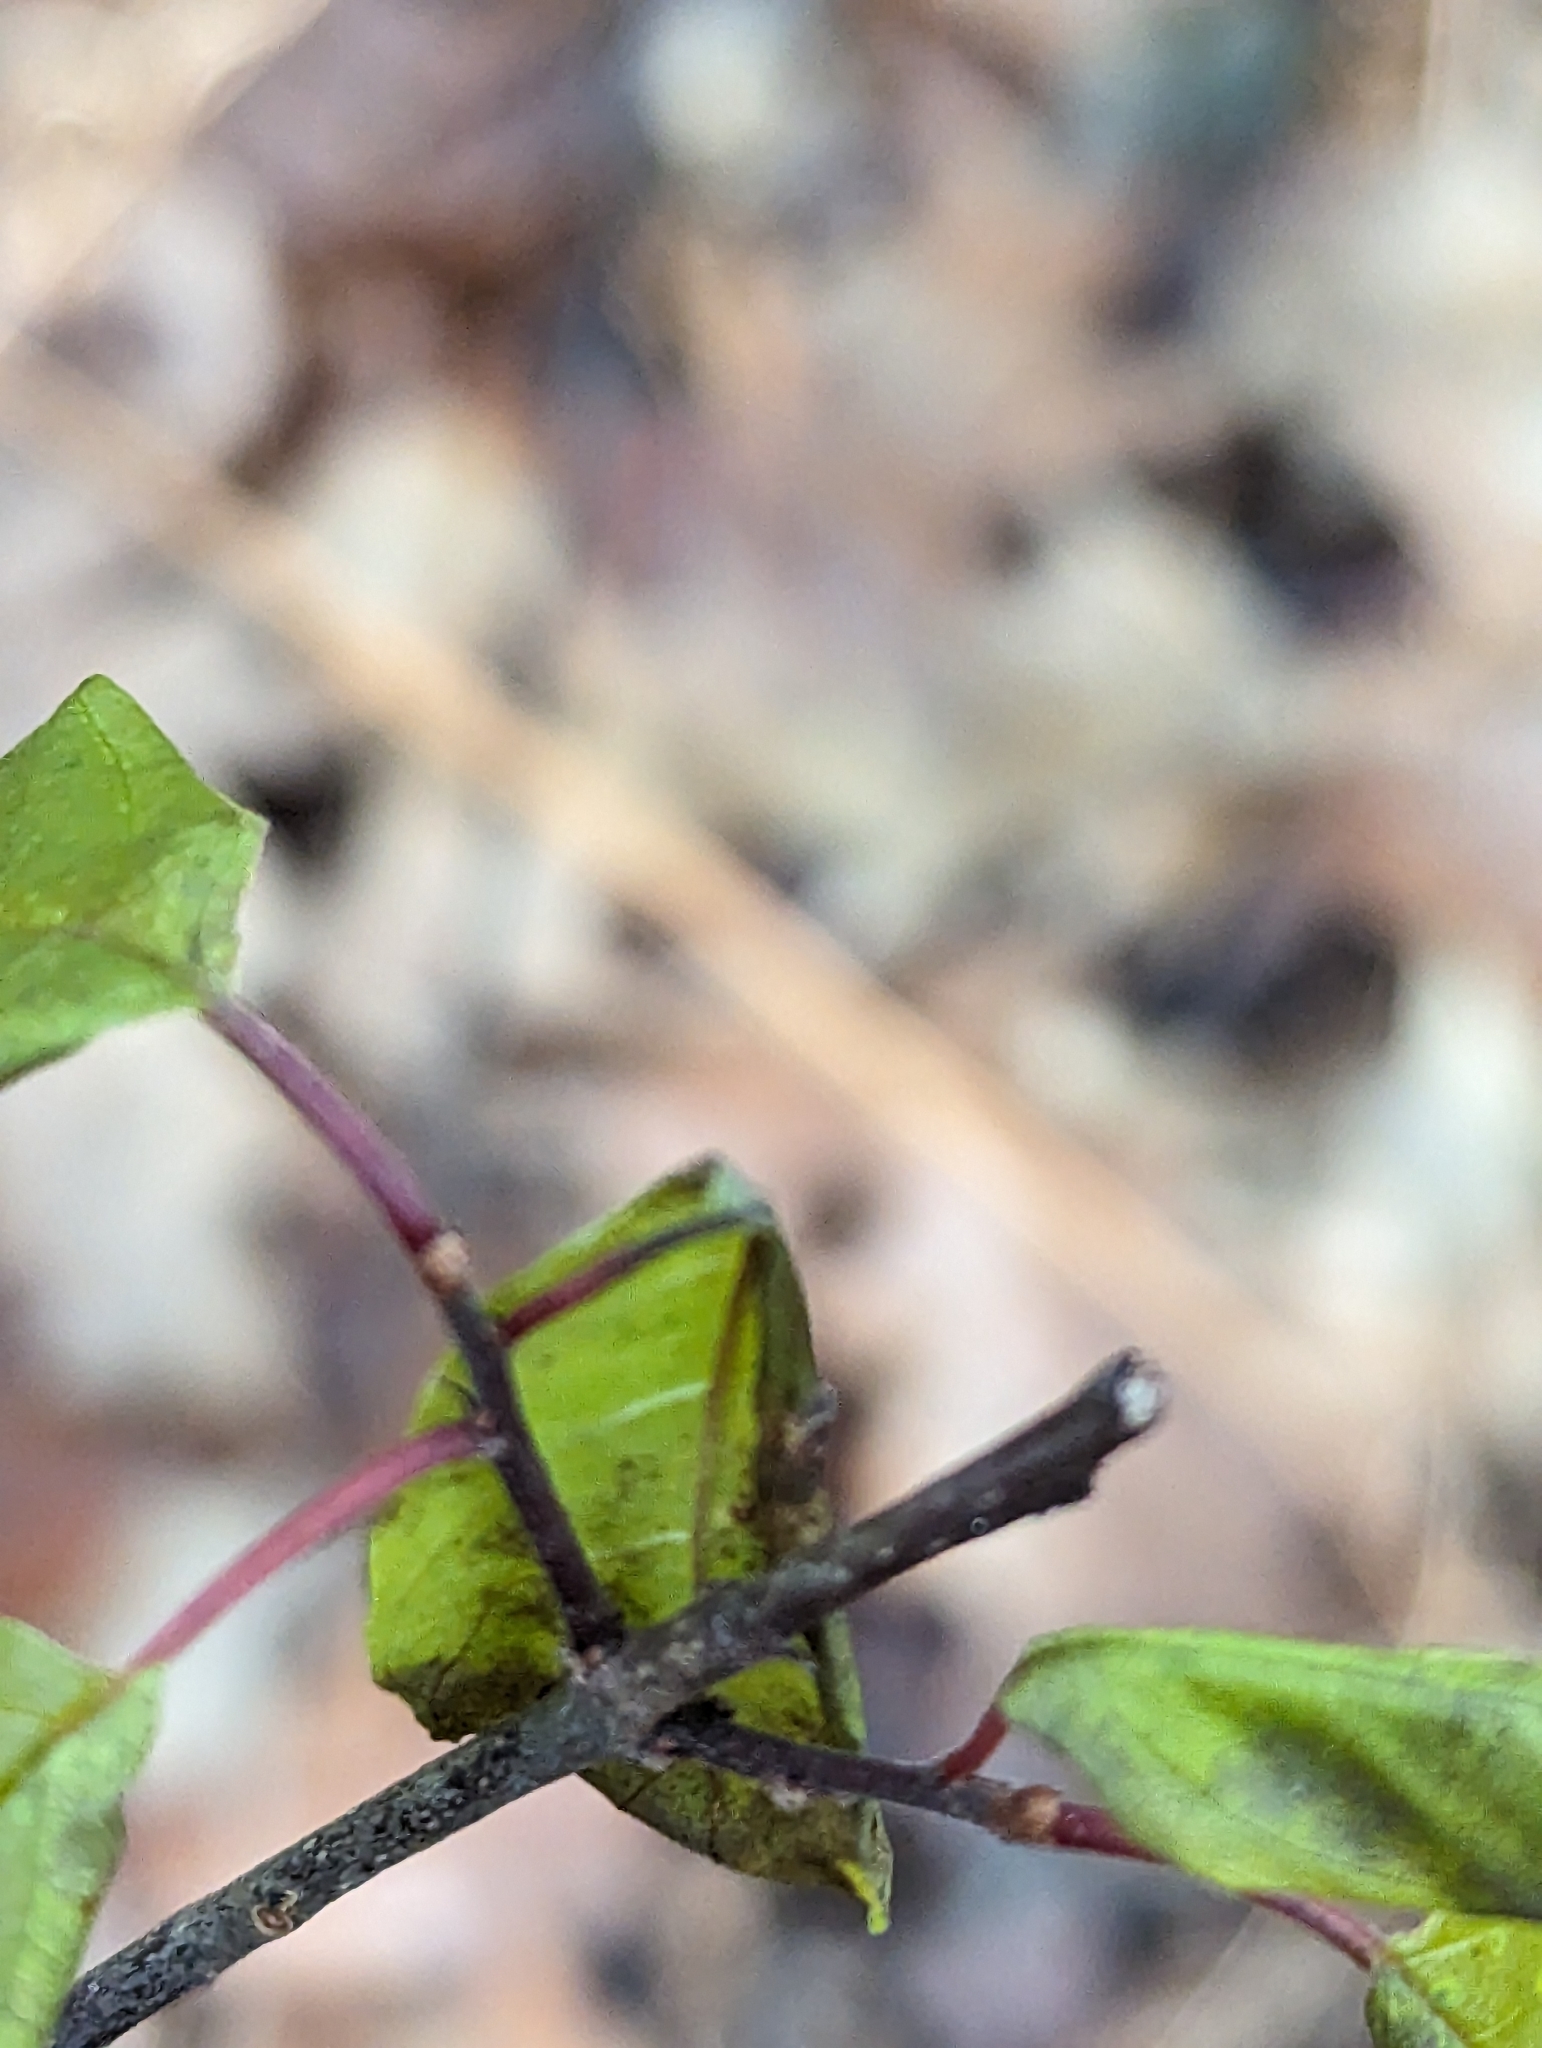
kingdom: Plantae
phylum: Tracheophyta
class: Magnoliopsida
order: Rosales
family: Rhamnaceae
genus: Frangula
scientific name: Frangula alnus
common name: Alder buckthorn
